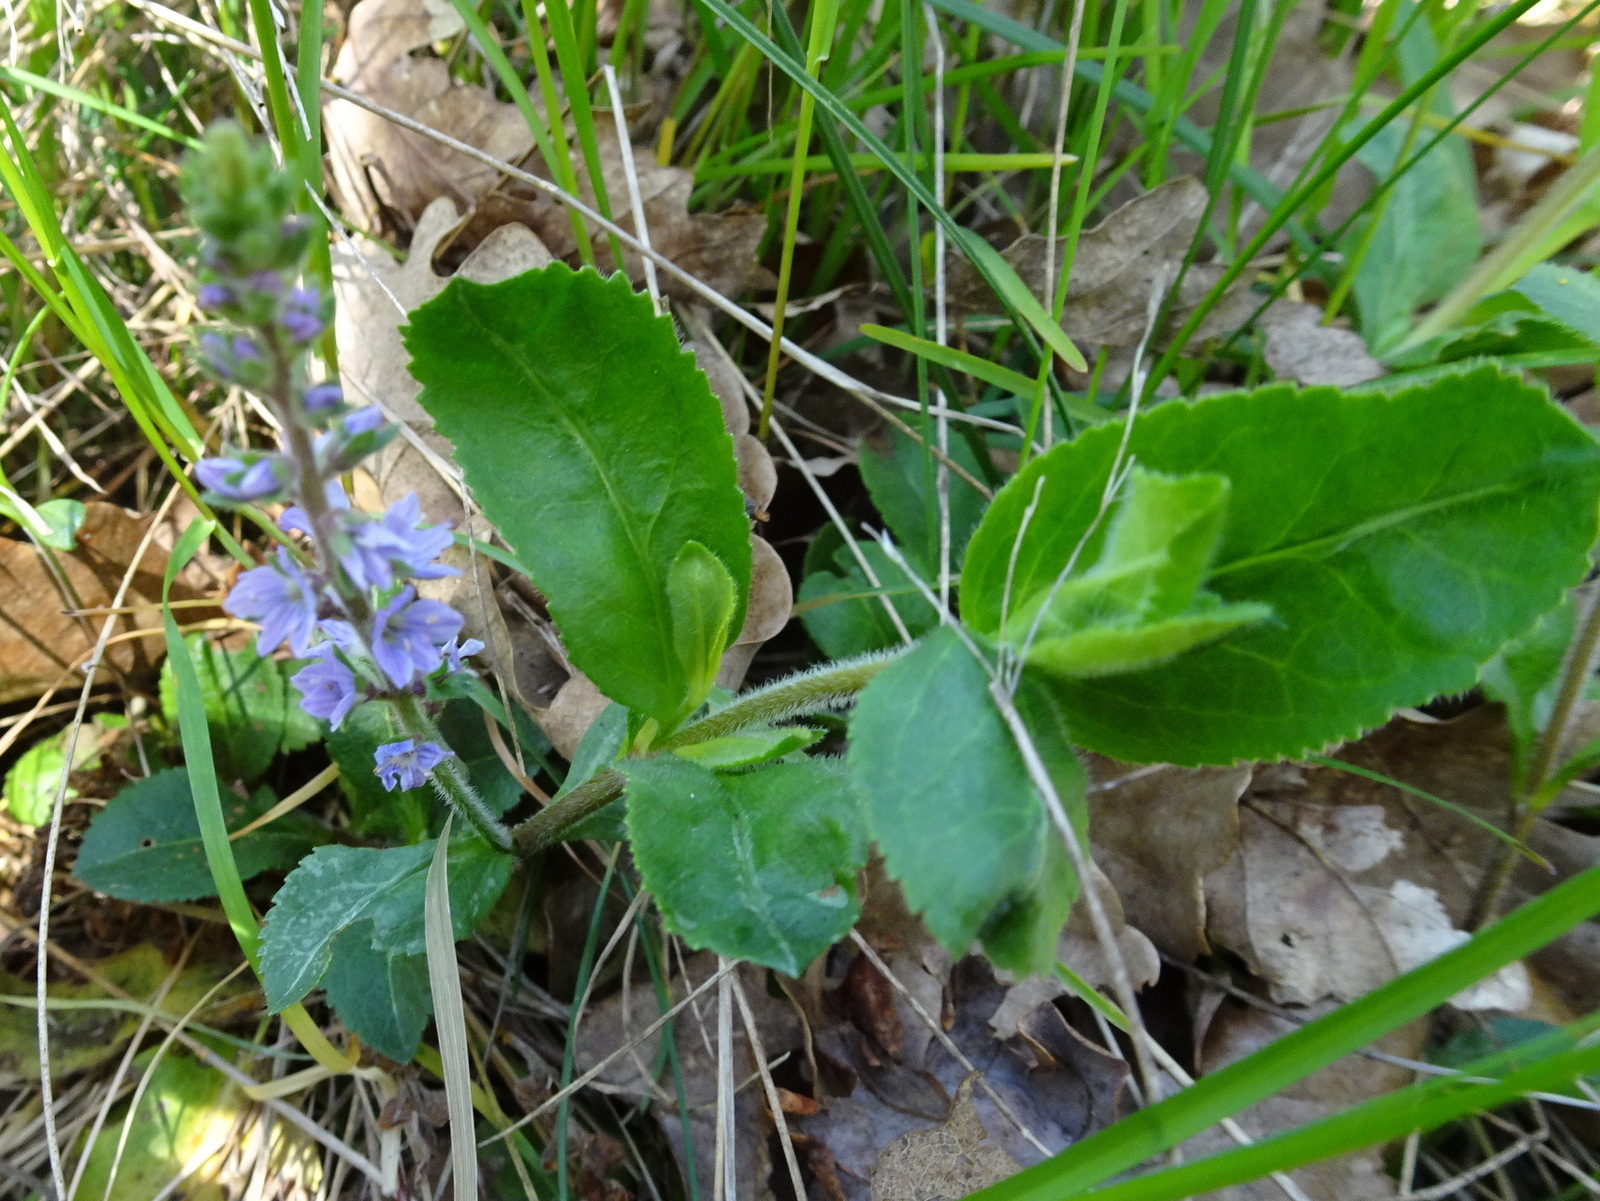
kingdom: Plantae
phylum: Tracheophyta
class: Magnoliopsida
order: Lamiales
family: Plantaginaceae
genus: Veronica
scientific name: Veronica officinalis
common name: Common speedwell
